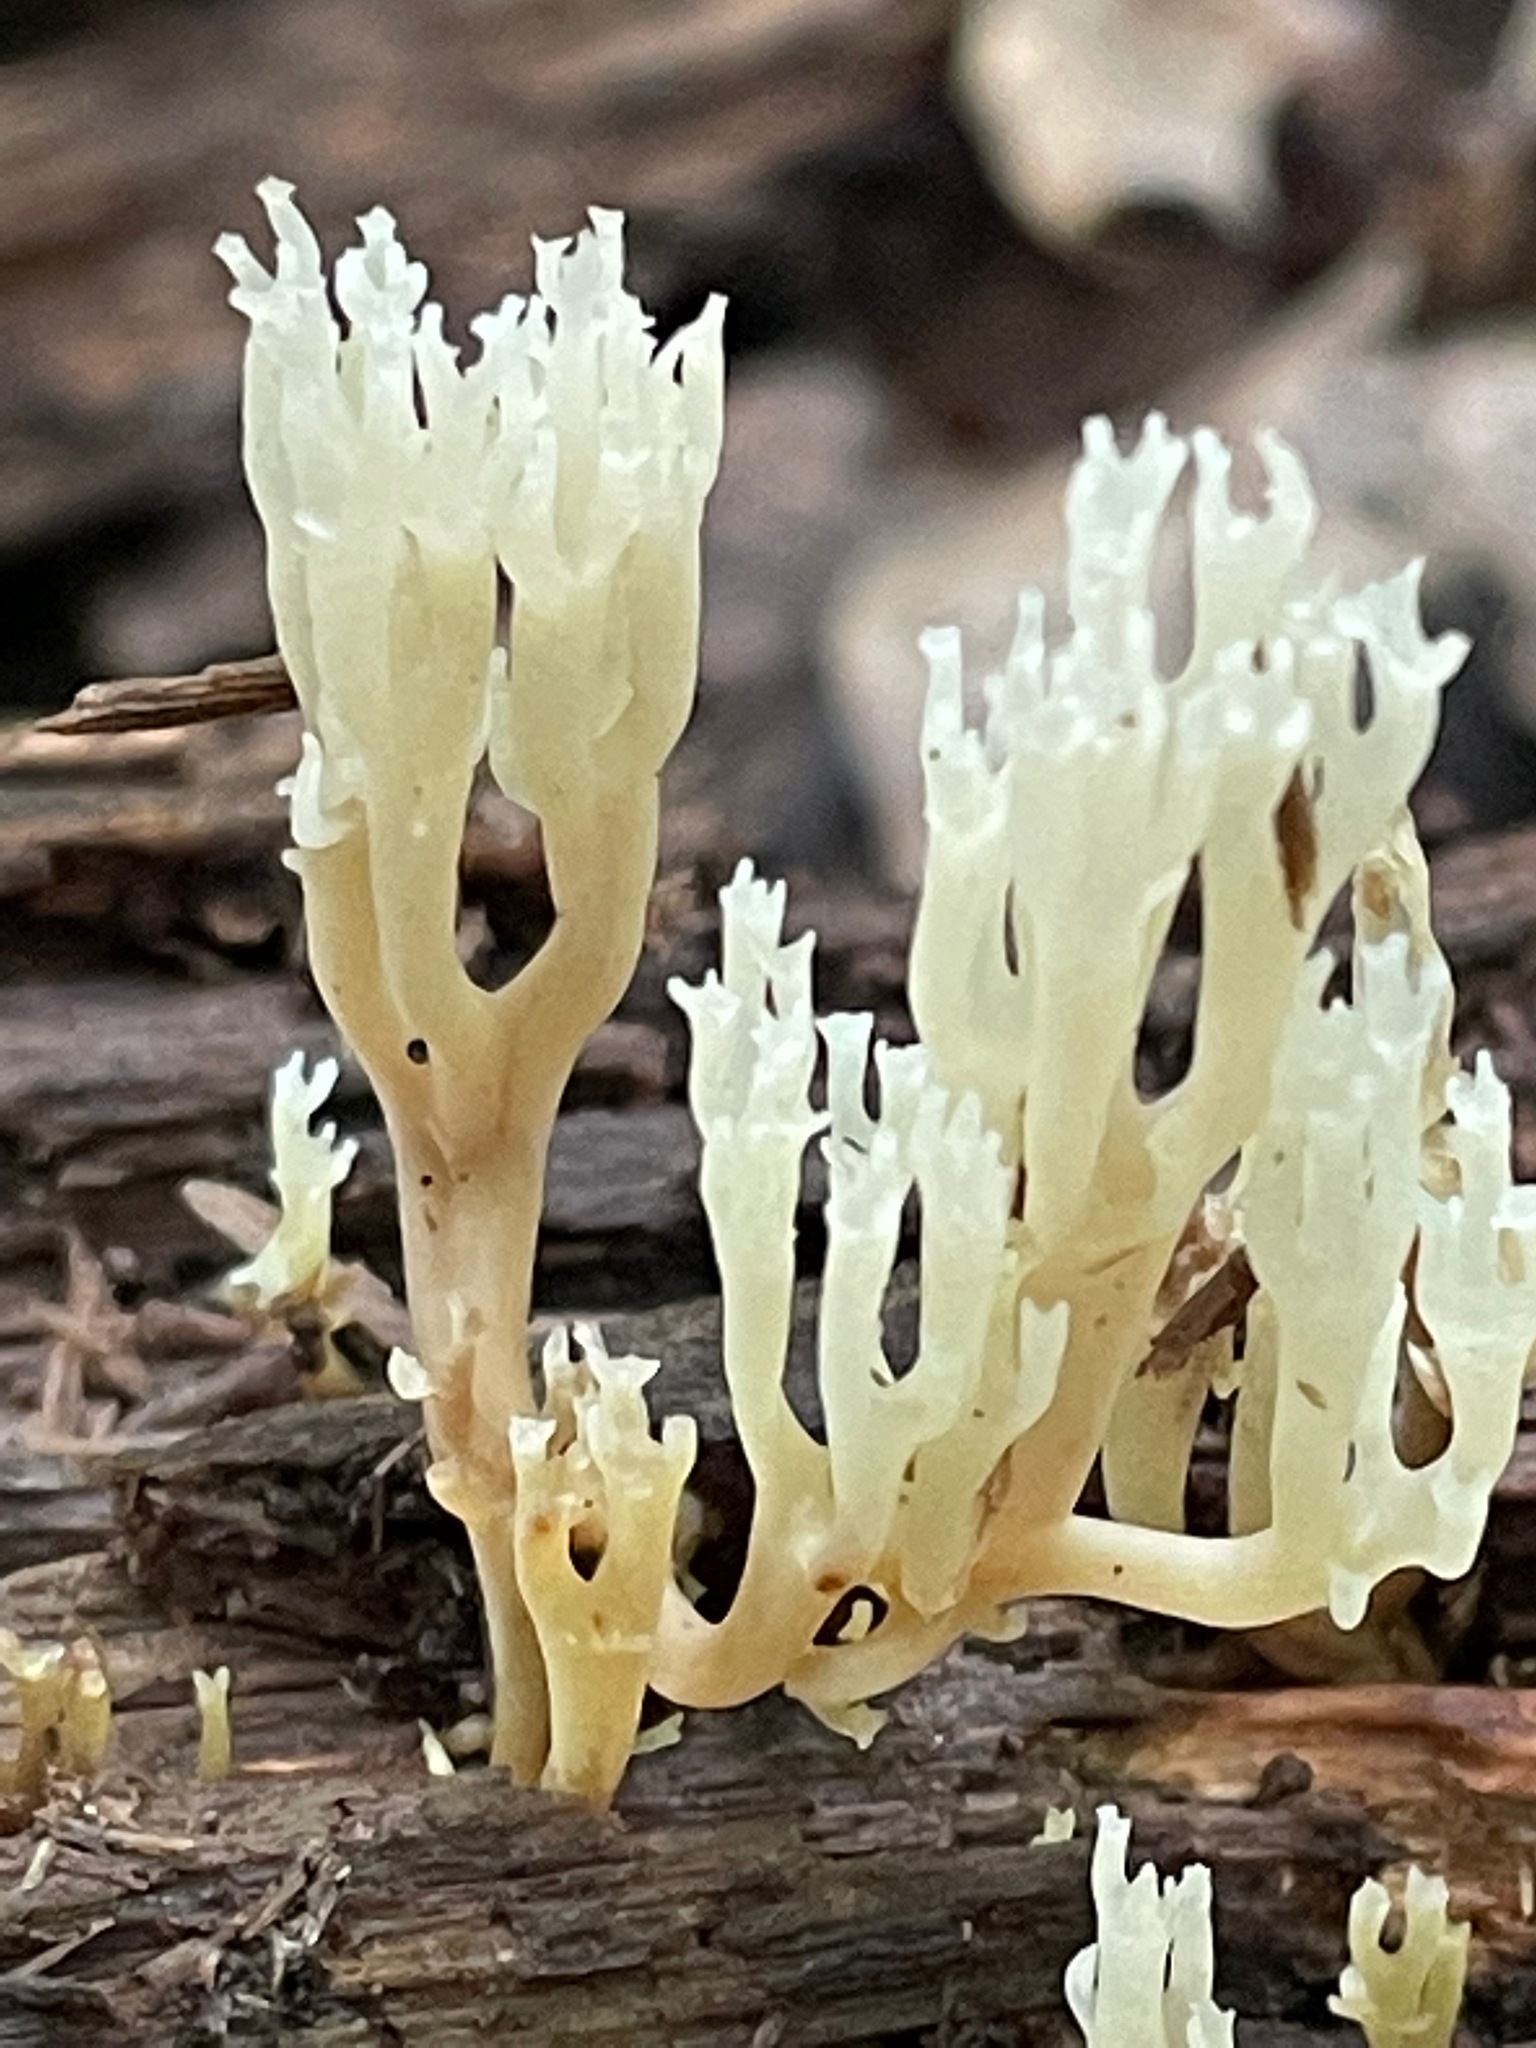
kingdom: Fungi
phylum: Basidiomycota
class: Agaricomycetes
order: Russulales
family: Auriscalpiaceae
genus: Artomyces
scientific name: Artomyces pyxidatus
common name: Crown-tipped coral fungus
